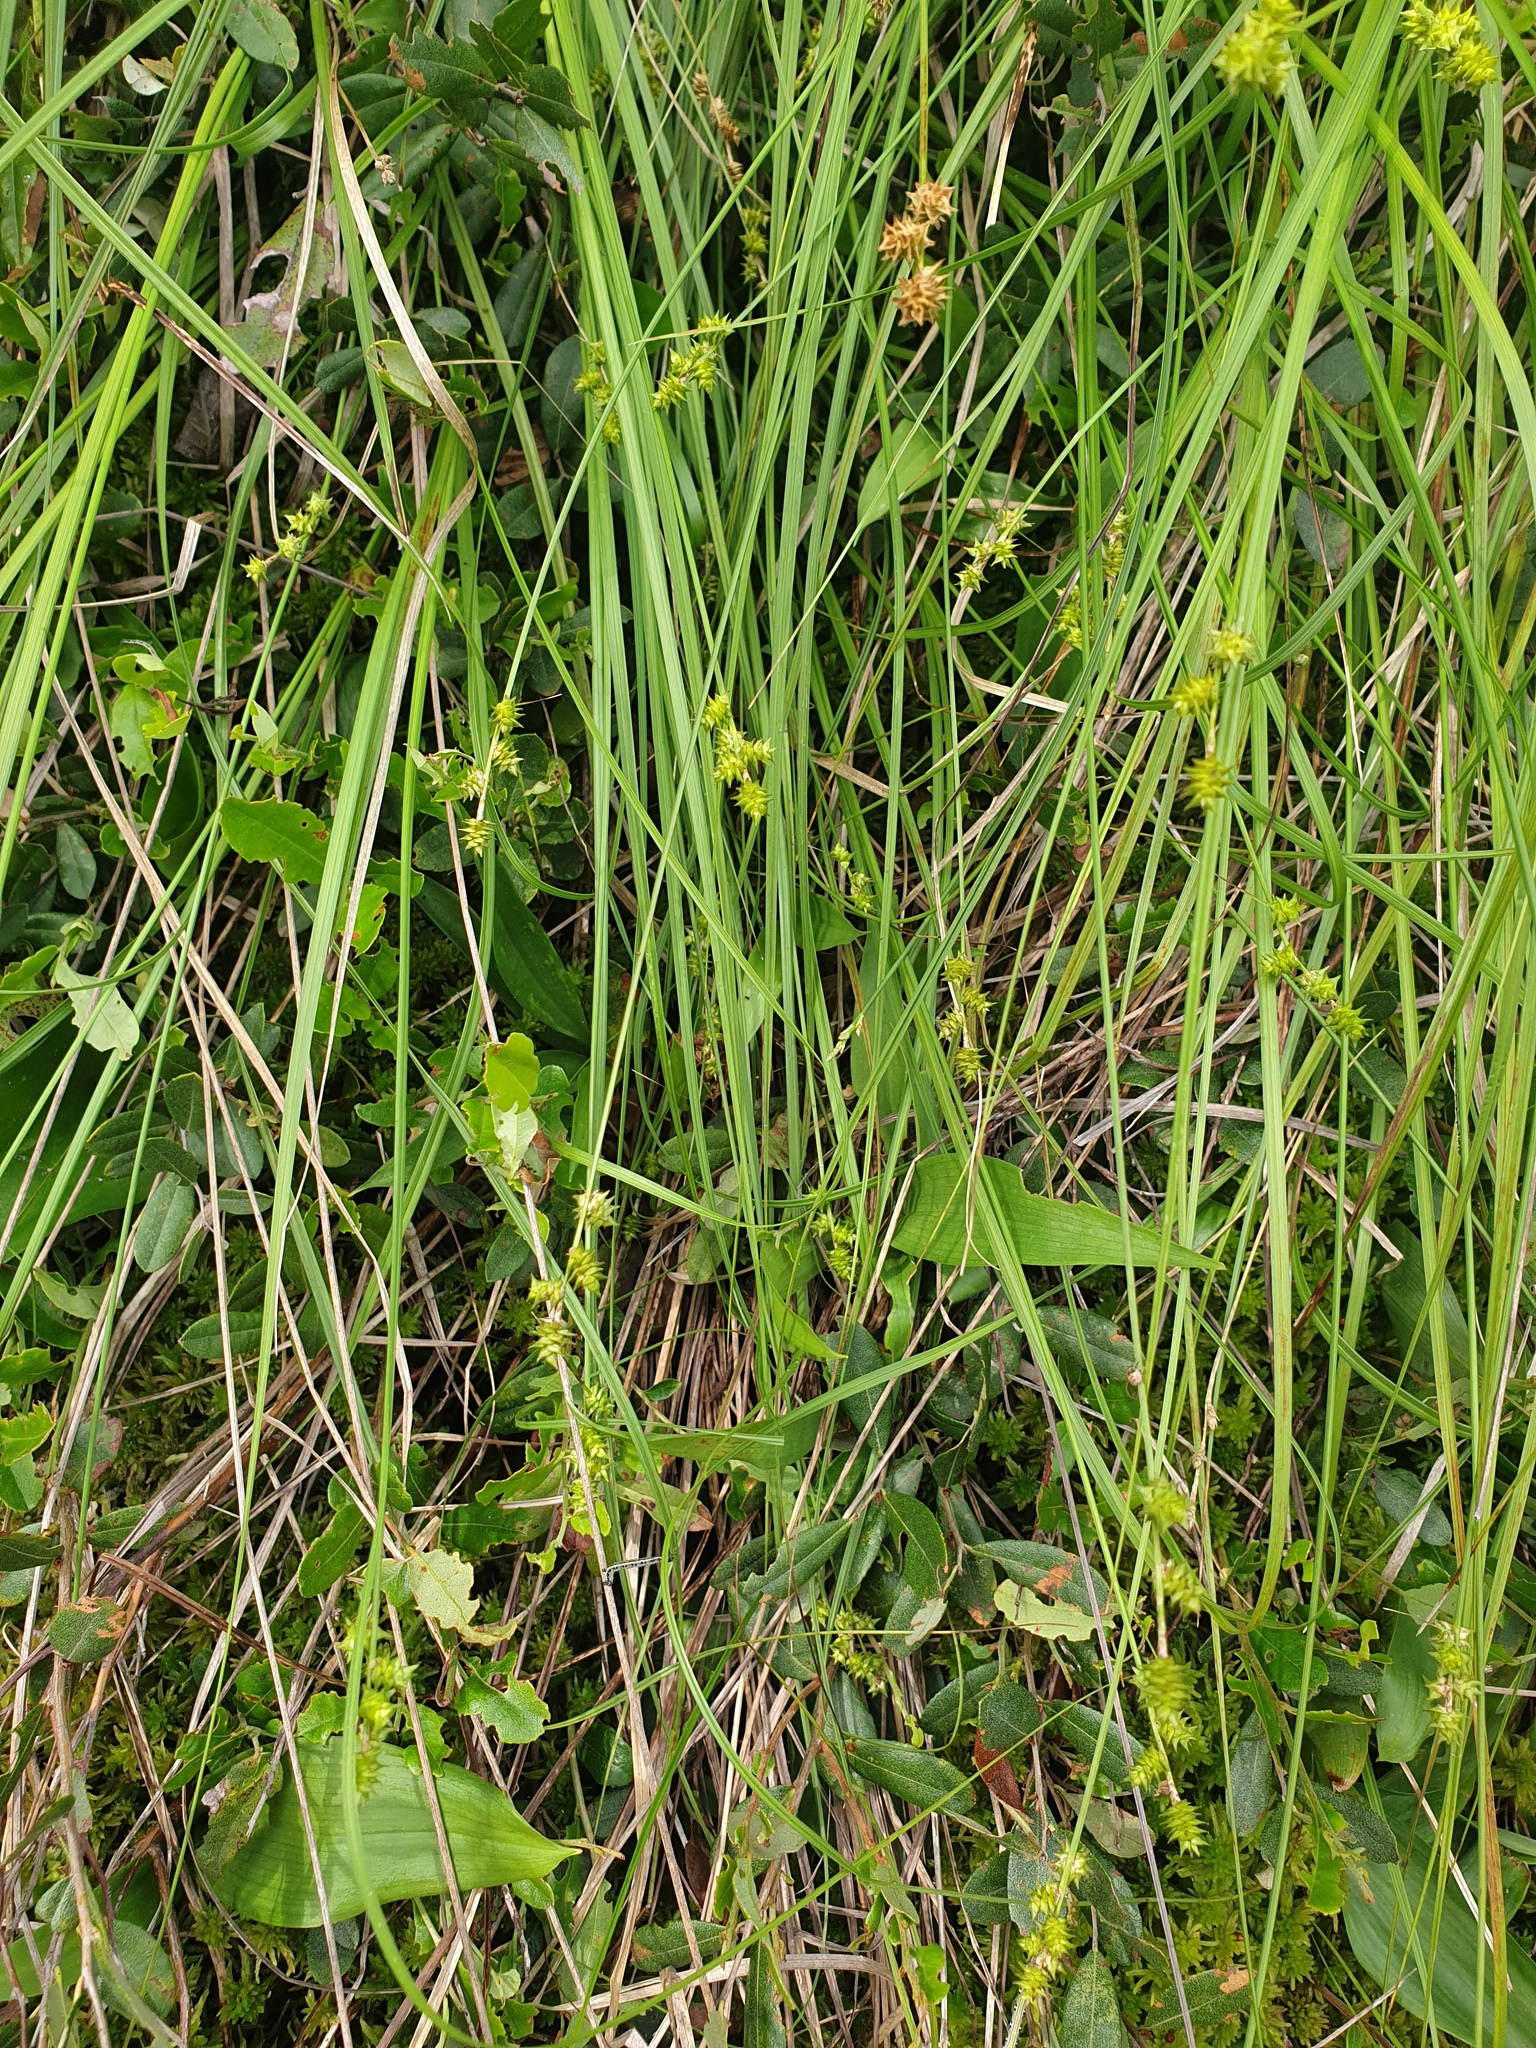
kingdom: Plantae
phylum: Tracheophyta
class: Liliopsida
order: Poales
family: Cyperaceae
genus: Carex
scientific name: Carex wiegandii
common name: Wiegand's sedge
